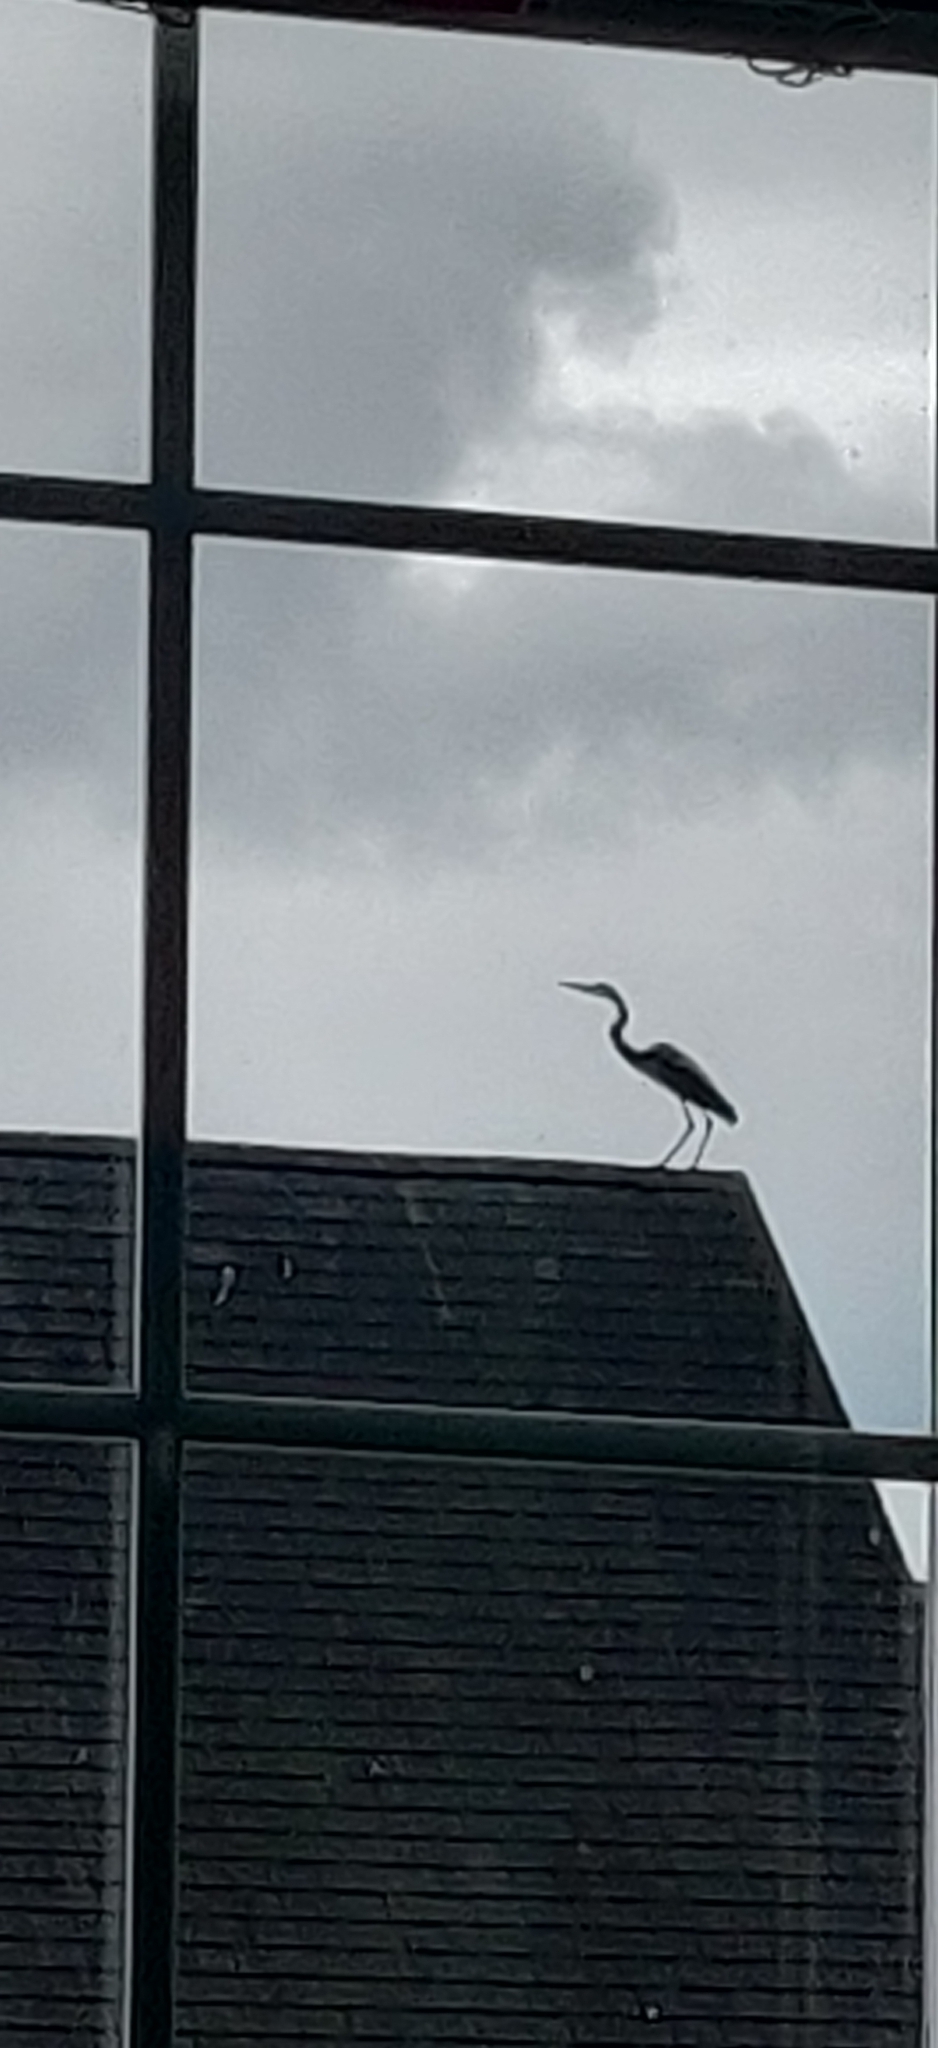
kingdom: Animalia
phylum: Chordata
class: Aves
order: Pelecaniformes
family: Ardeidae
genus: Ardea
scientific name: Ardea herodias
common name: Great blue heron
